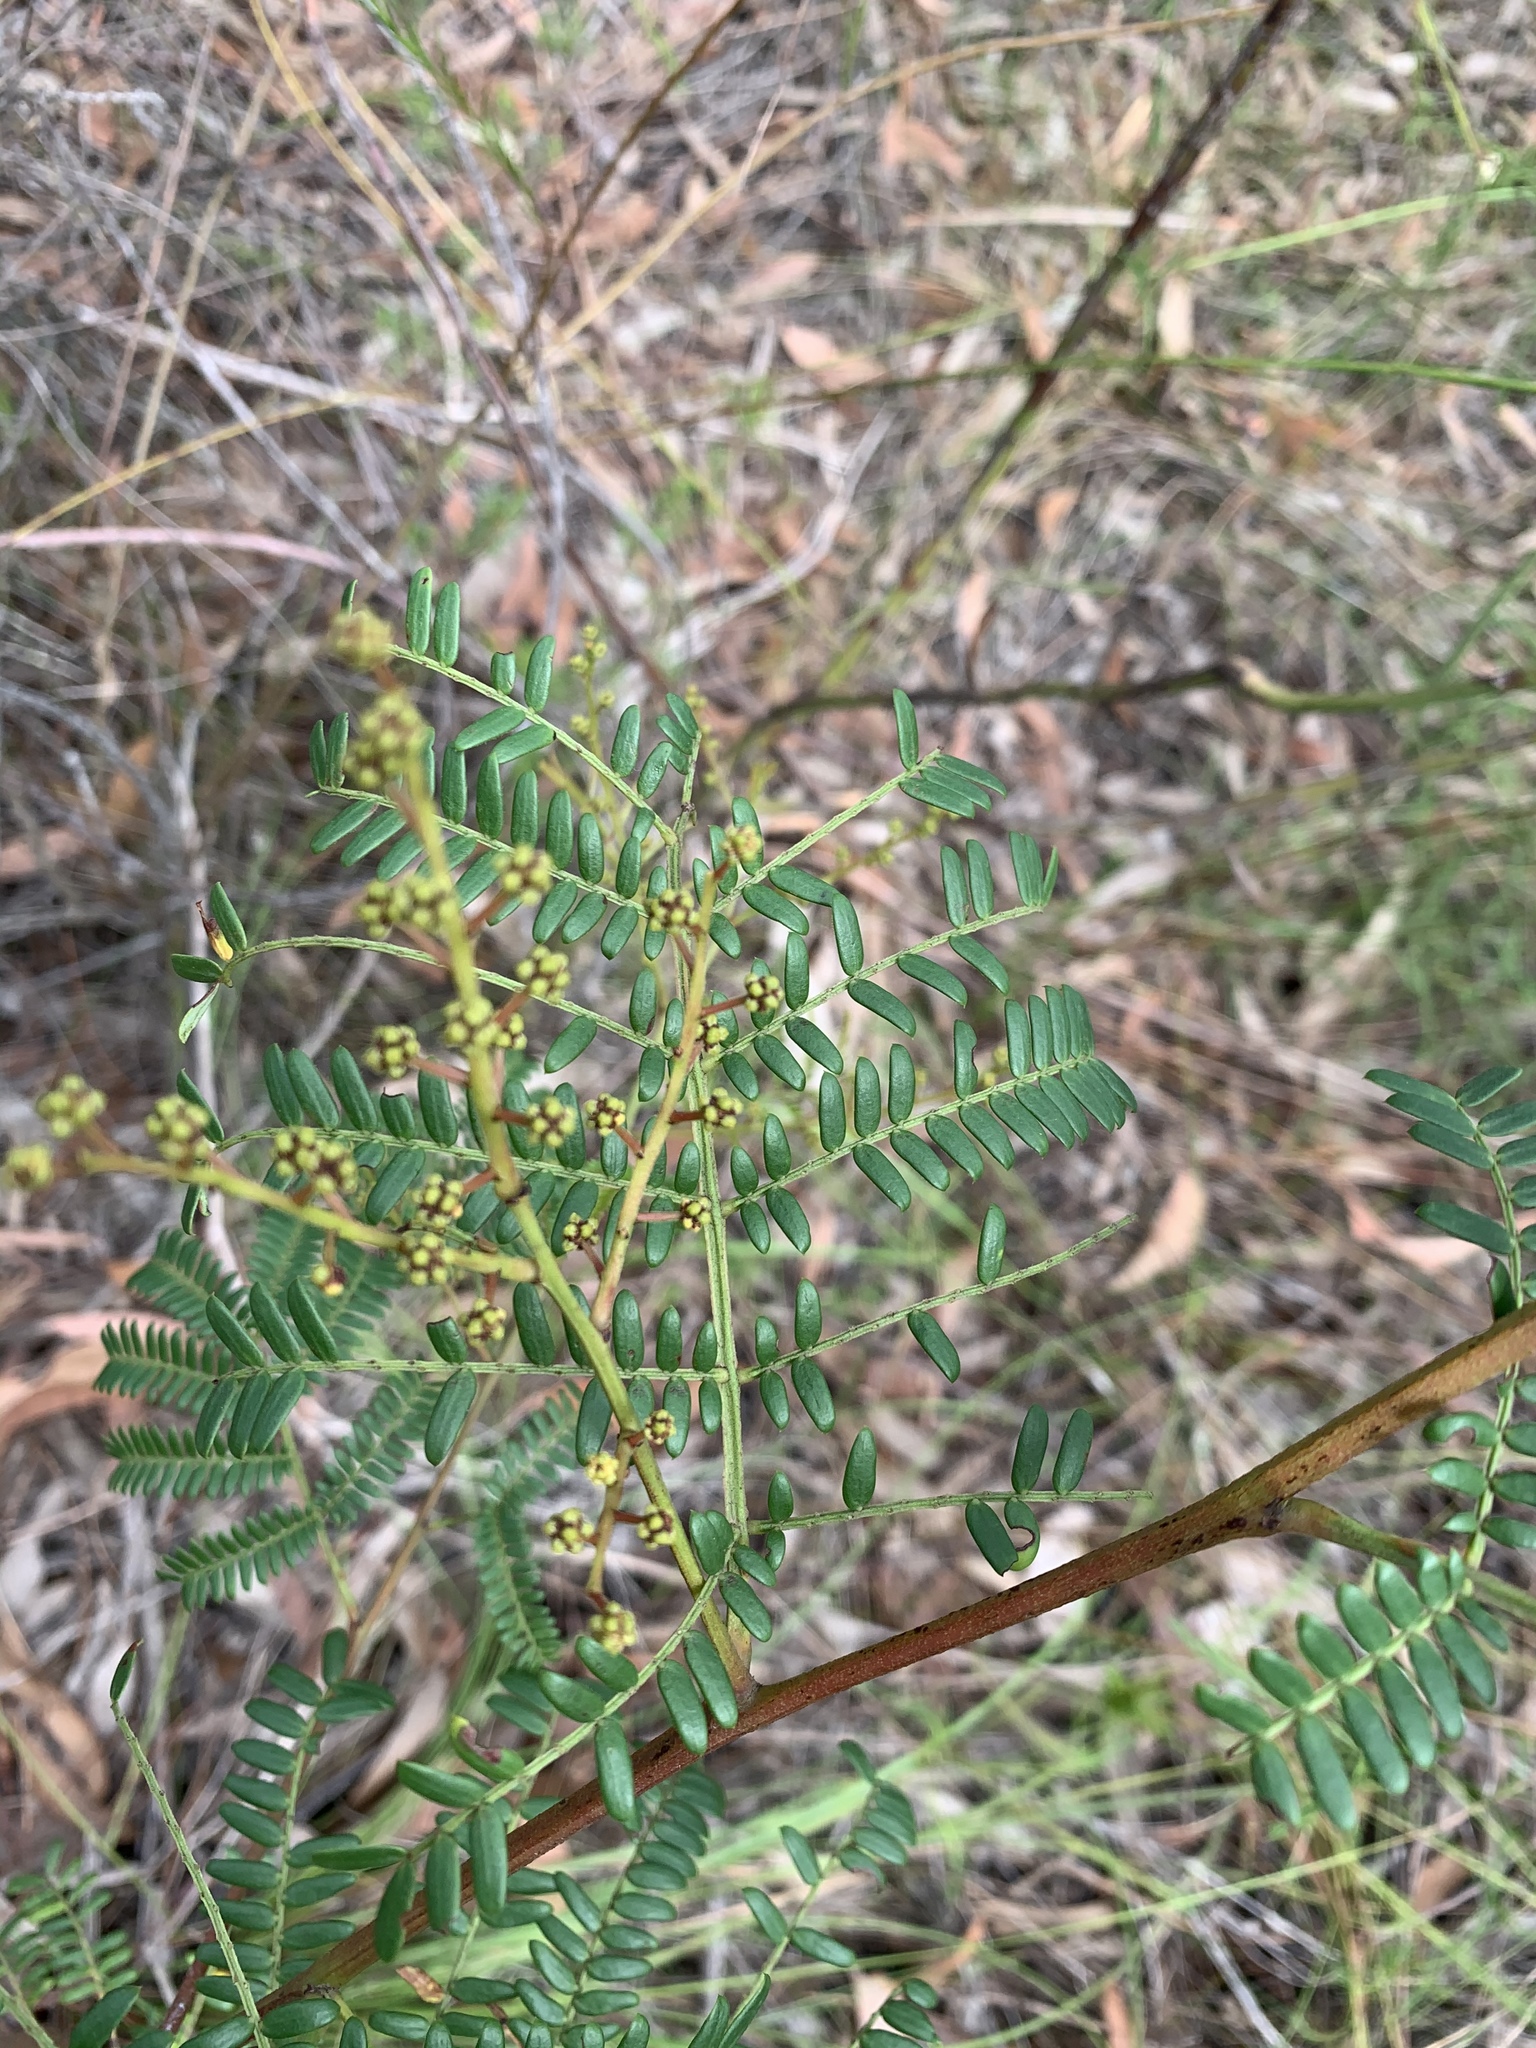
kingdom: Plantae
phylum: Tracheophyta
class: Magnoliopsida
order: Fabales
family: Fabaceae
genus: Acacia
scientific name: Acacia terminalis
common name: Cedar wattle
